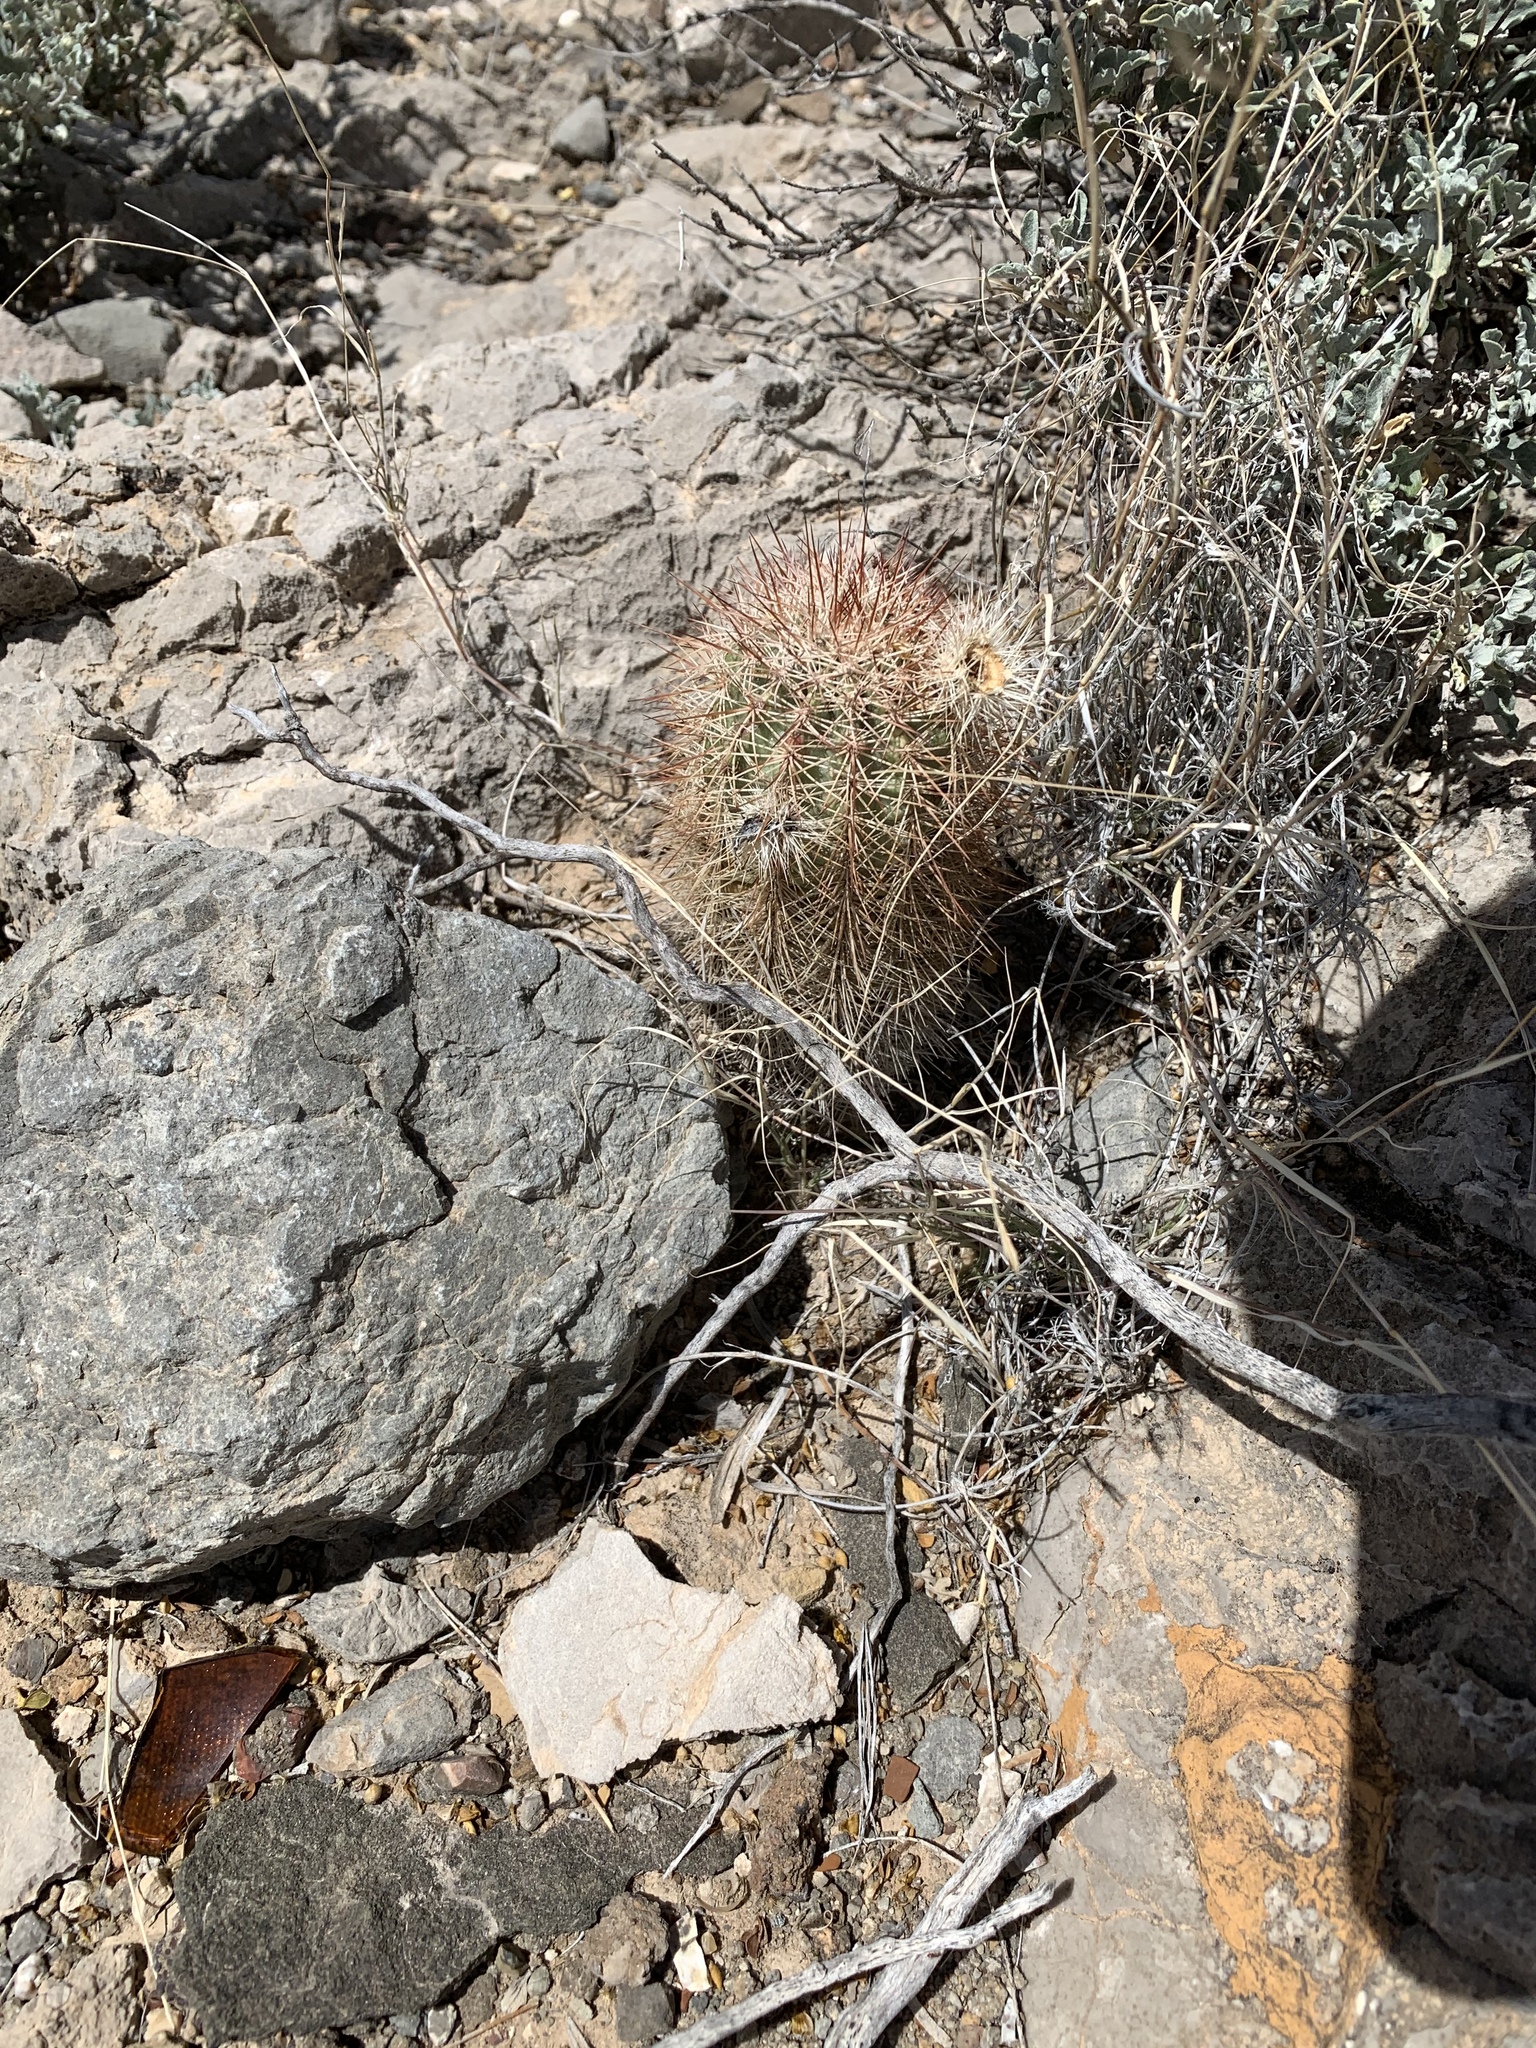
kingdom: Plantae
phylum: Tracheophyta
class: Magnoliopsida
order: Caryophyllales
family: Cactaceae
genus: Echinocereus
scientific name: Echinocereus roetteri
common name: Lloyd's hedgehog cactus
